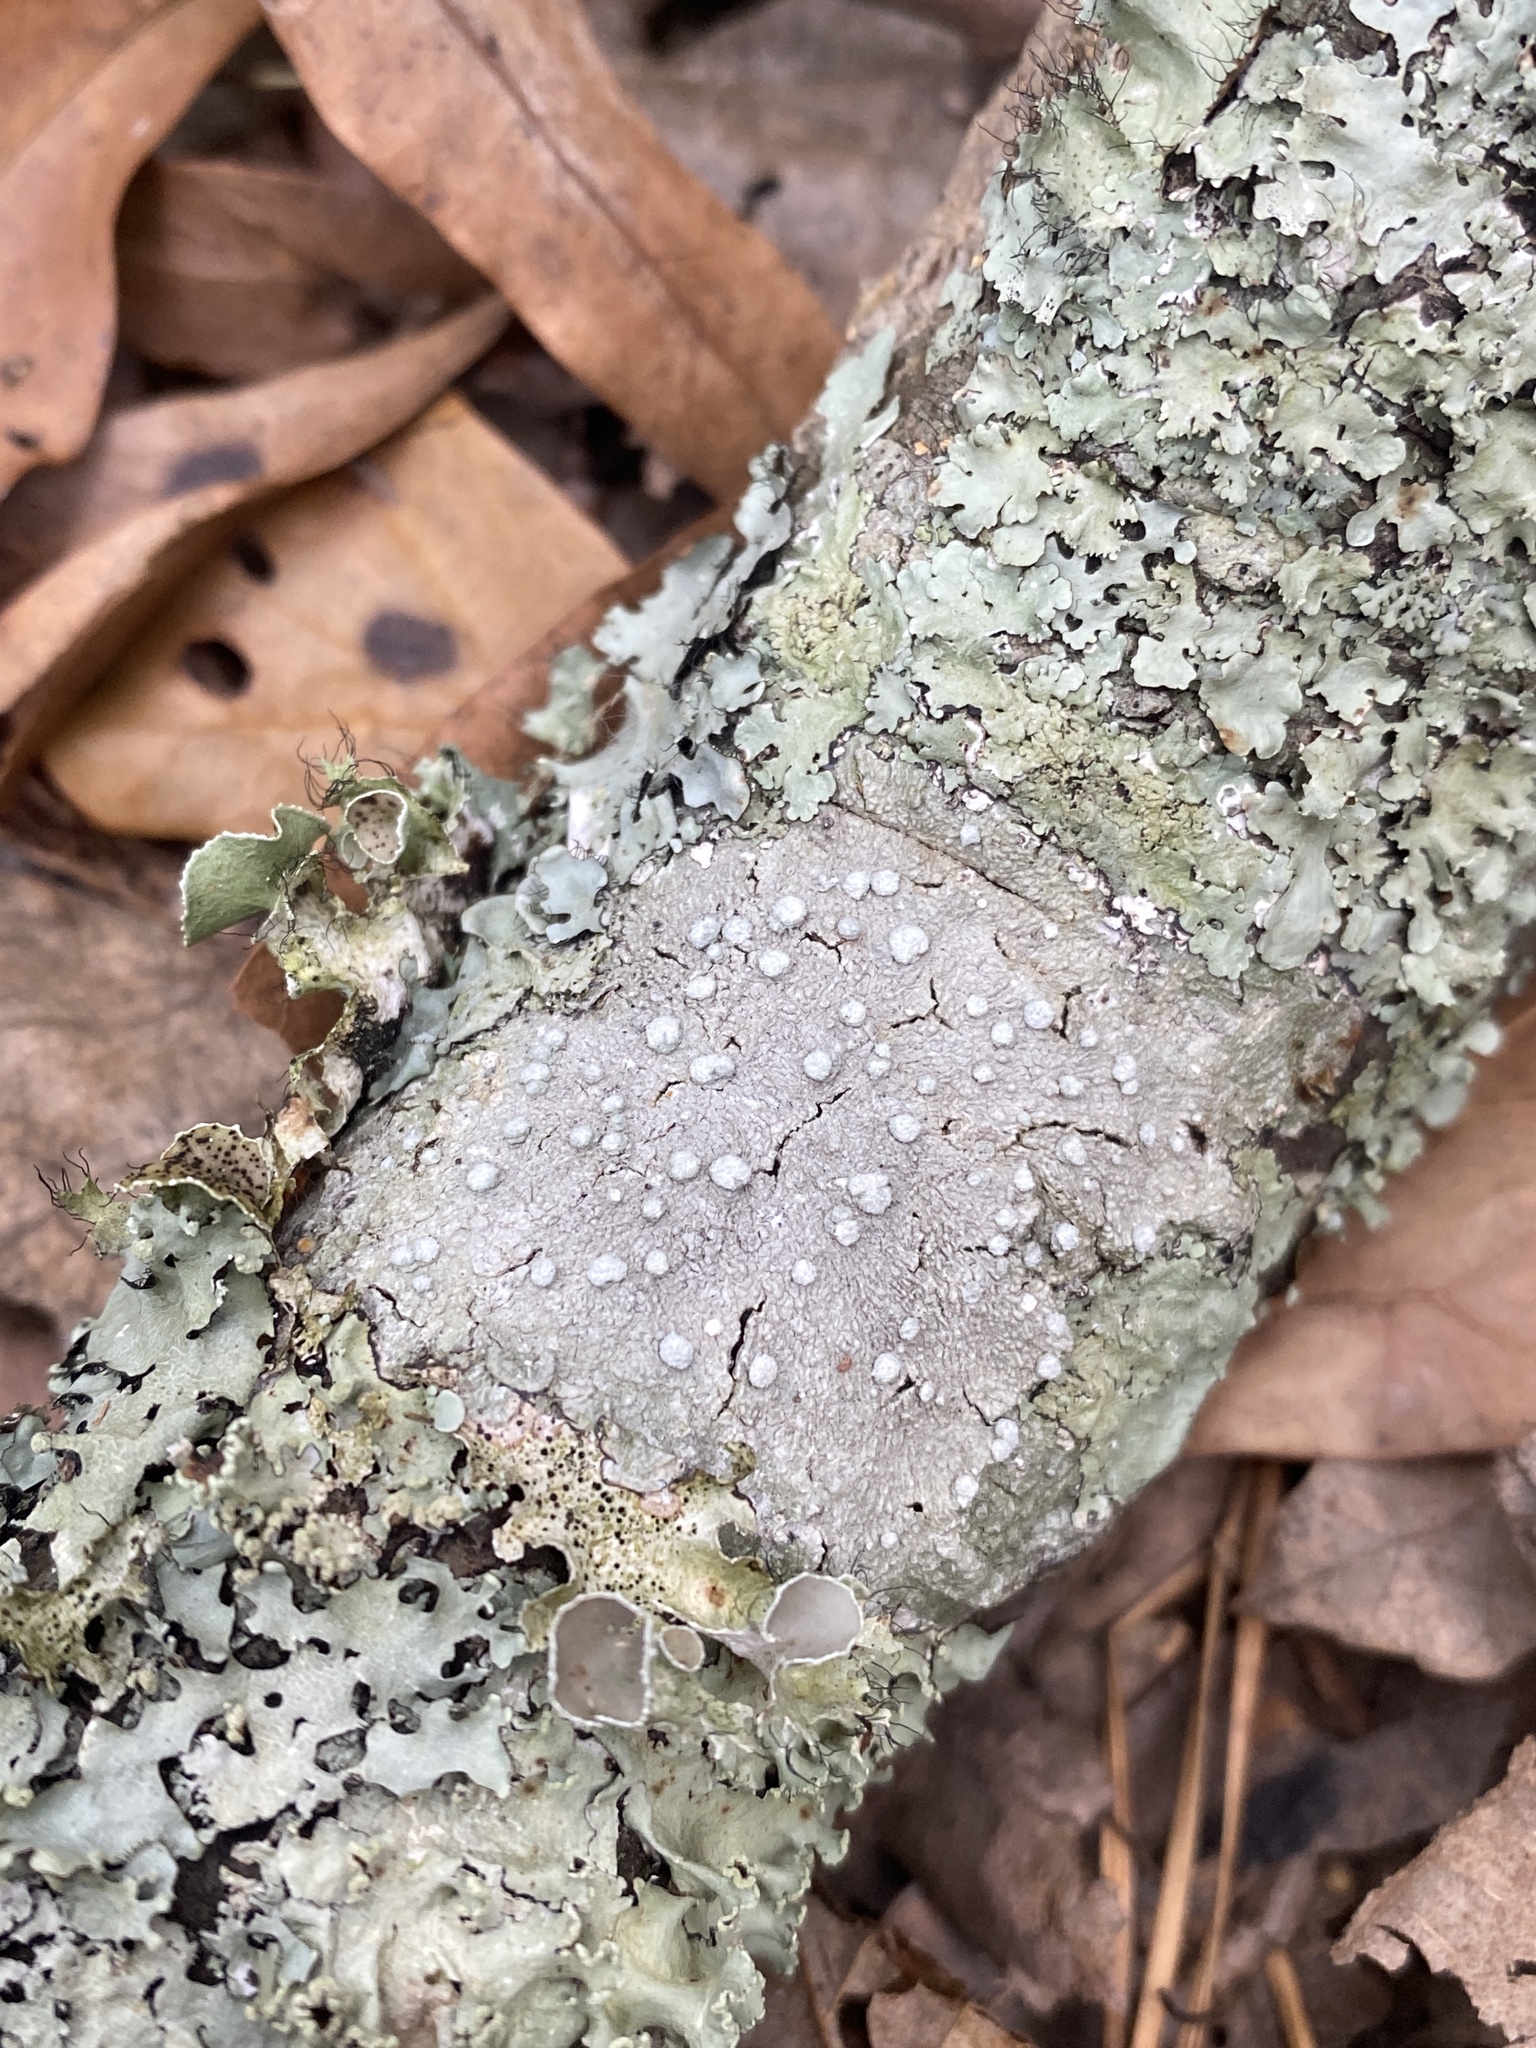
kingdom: Fungi
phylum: Ascomycota
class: Lecanoromycetes
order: Lecanorales
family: Parmeliaceae
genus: Neoprotoparmelia
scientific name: Neoprotoparmelia capitata
